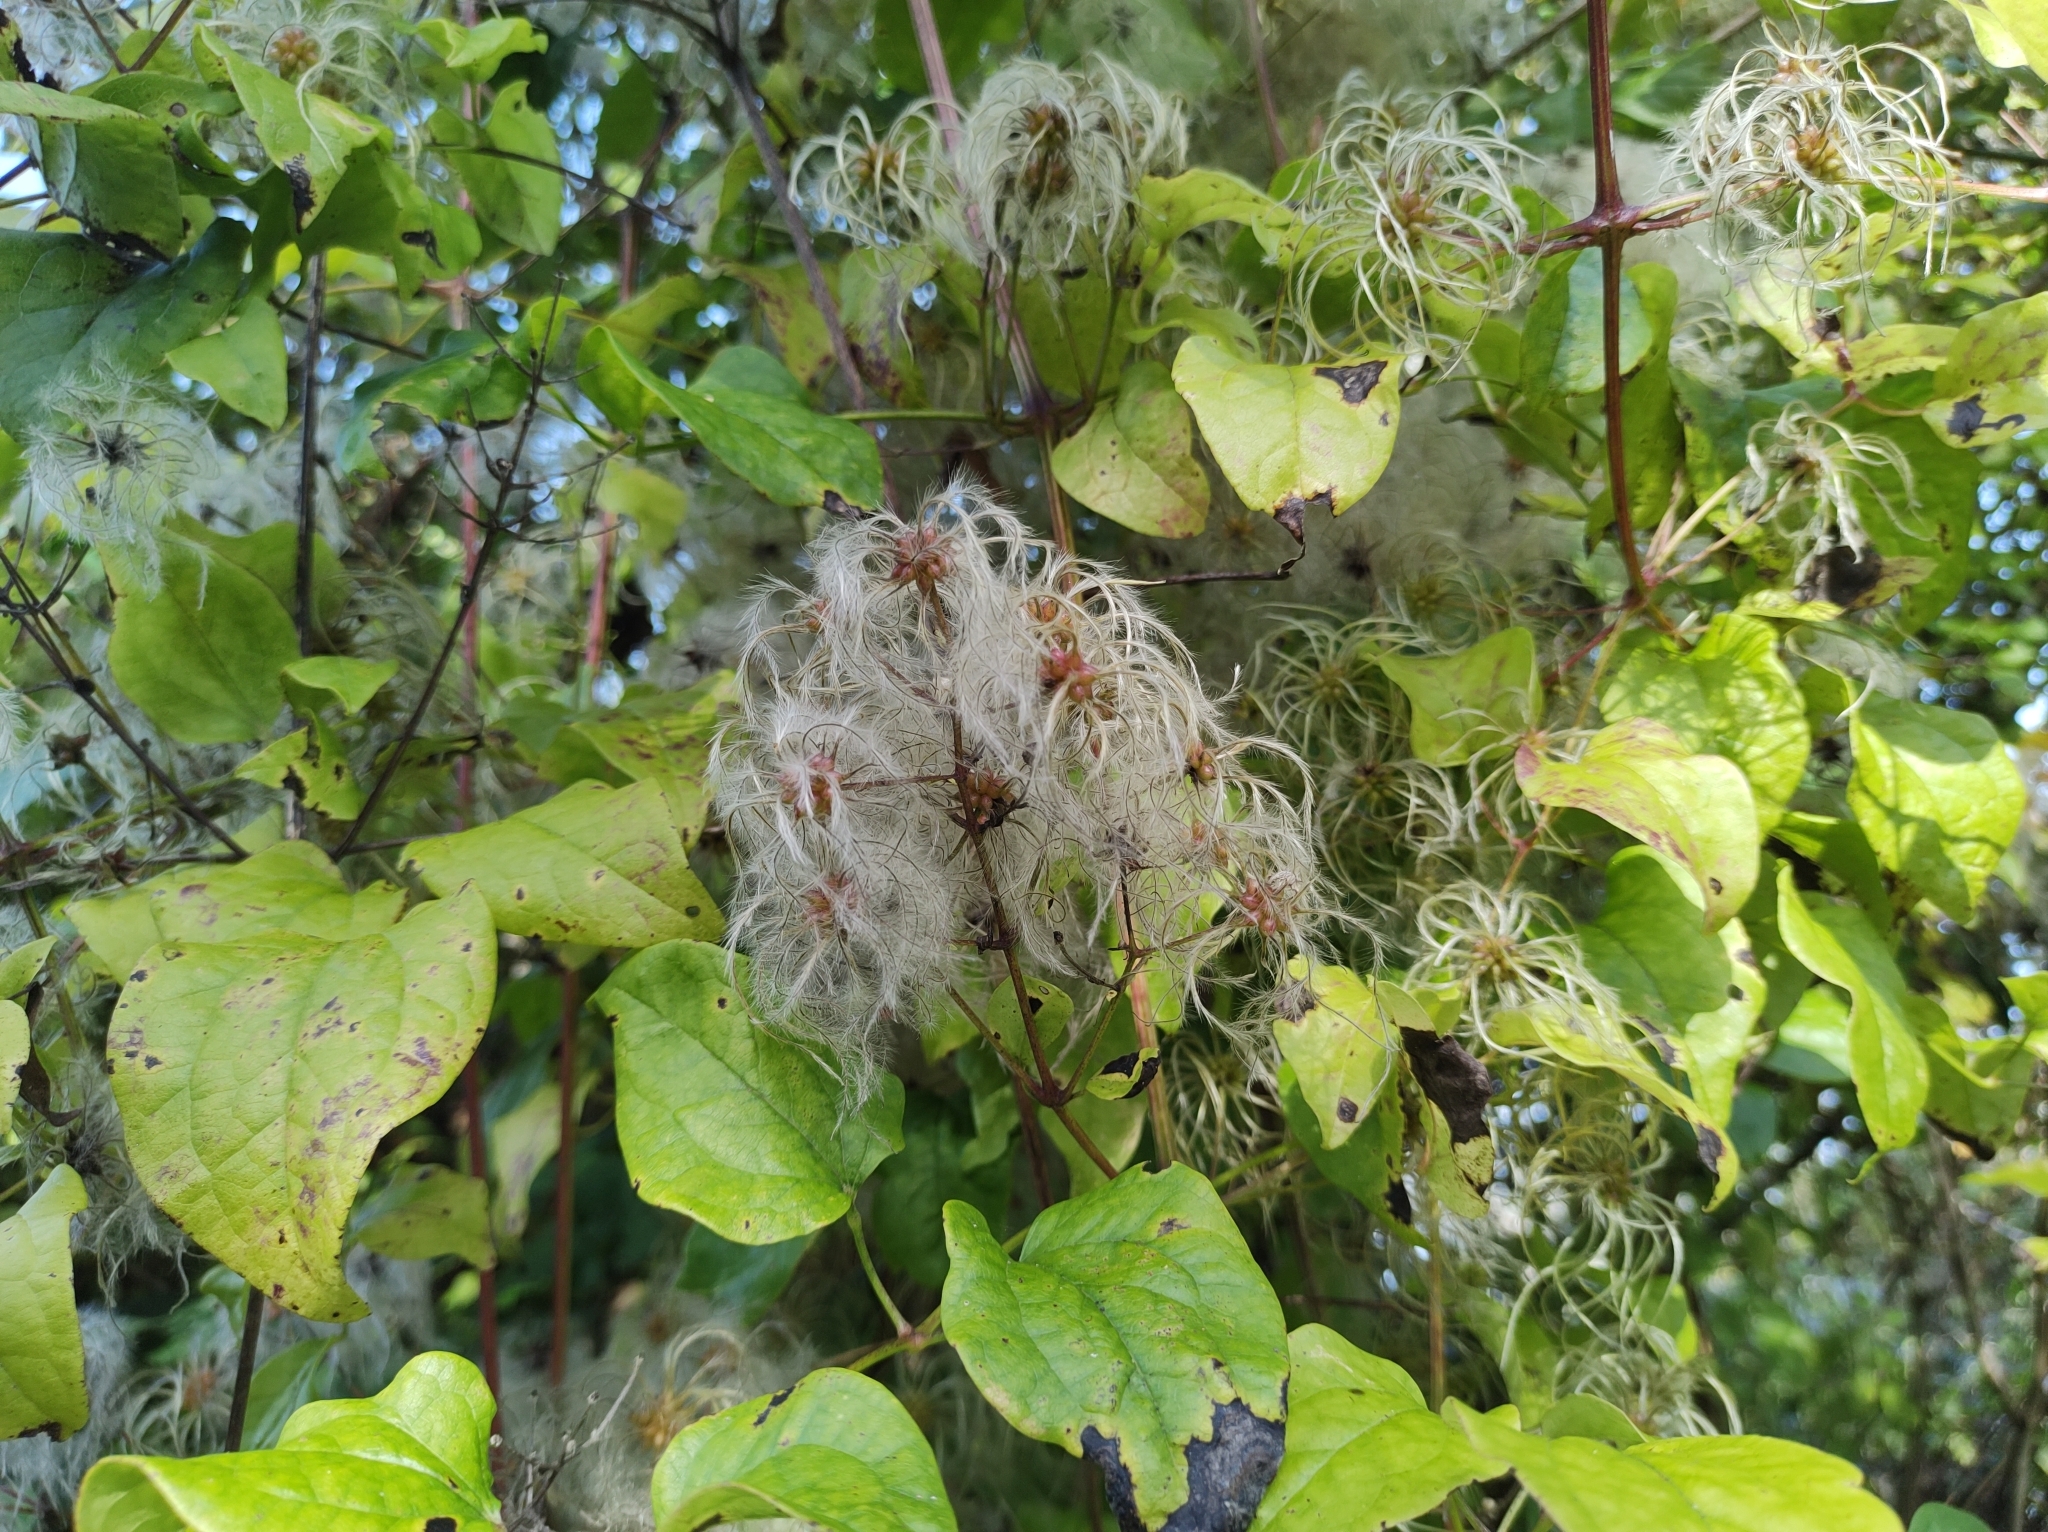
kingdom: Plantae
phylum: Tracheophyta
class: Magnoliopsida
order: Ranunculales
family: Ranunculaceae
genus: Clematis
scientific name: Clematis vitalba
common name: Evergreen clematis
